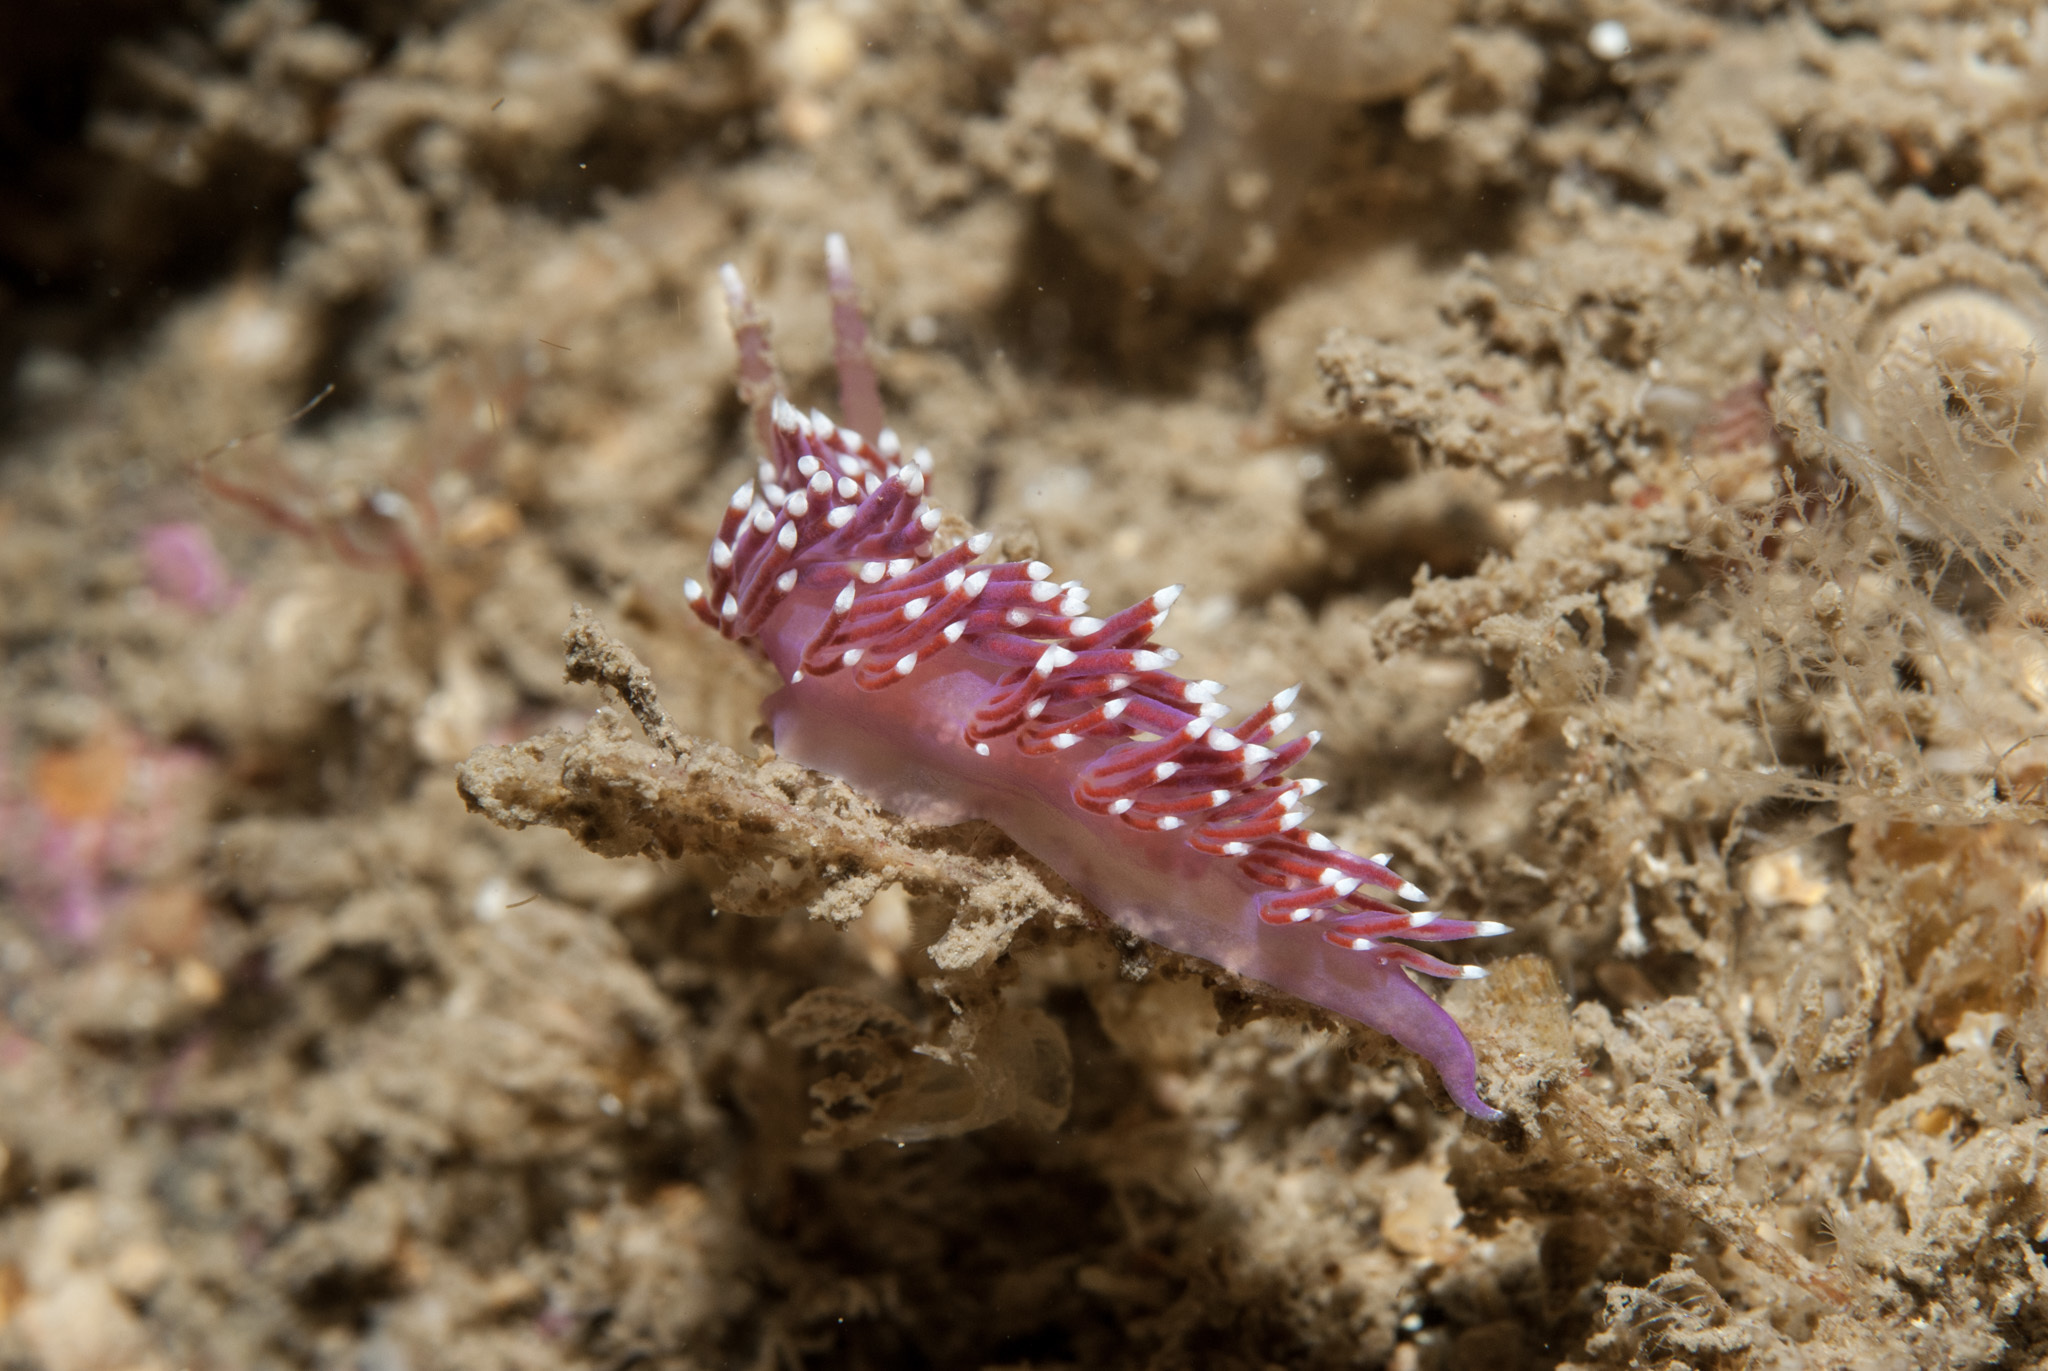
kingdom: Animalia
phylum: Mollusca
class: Gastropoda
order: Nudibranchia
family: Flabellinidae
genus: Edmundsella
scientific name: Edmundsella pedata
